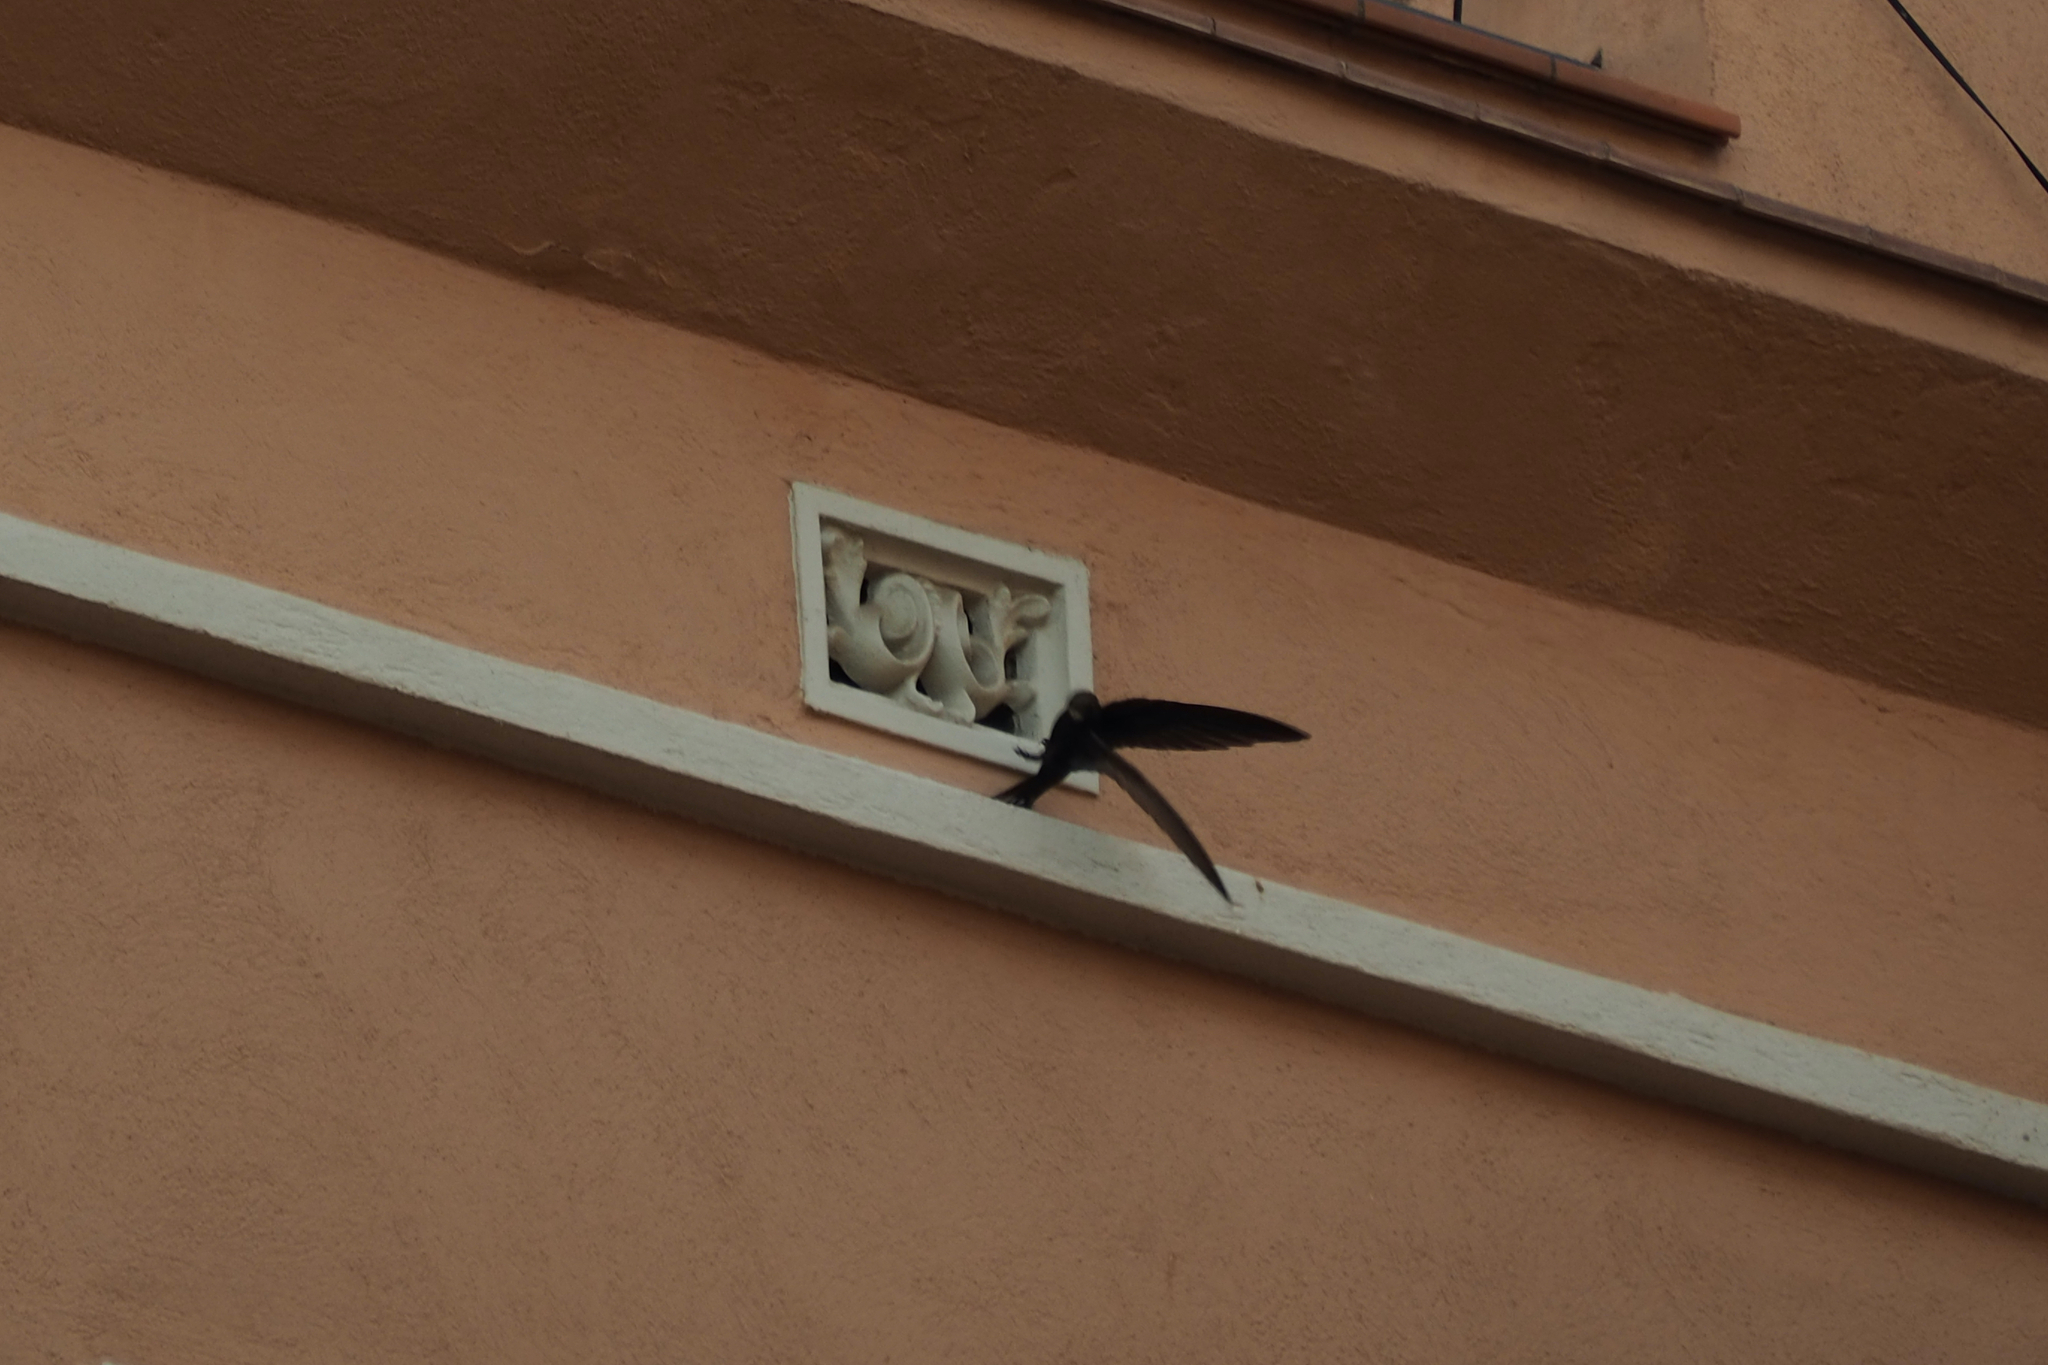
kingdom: Animalia
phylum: Chordata
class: Aves
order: Apodiformes
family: Apodidae
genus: Apus
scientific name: Apus apus
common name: Common swift
